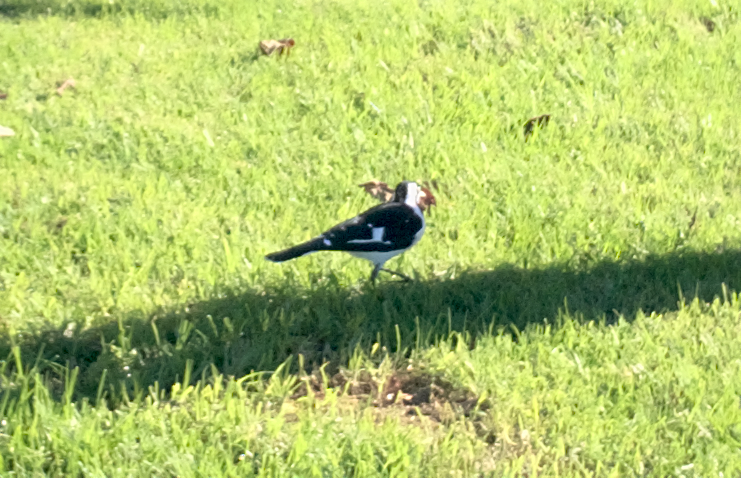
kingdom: Animalia
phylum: Chordata
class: Aves
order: Passeriformes
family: Monarchidae
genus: Grallina
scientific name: Grallina cyanoleuca
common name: Magpie-lark
